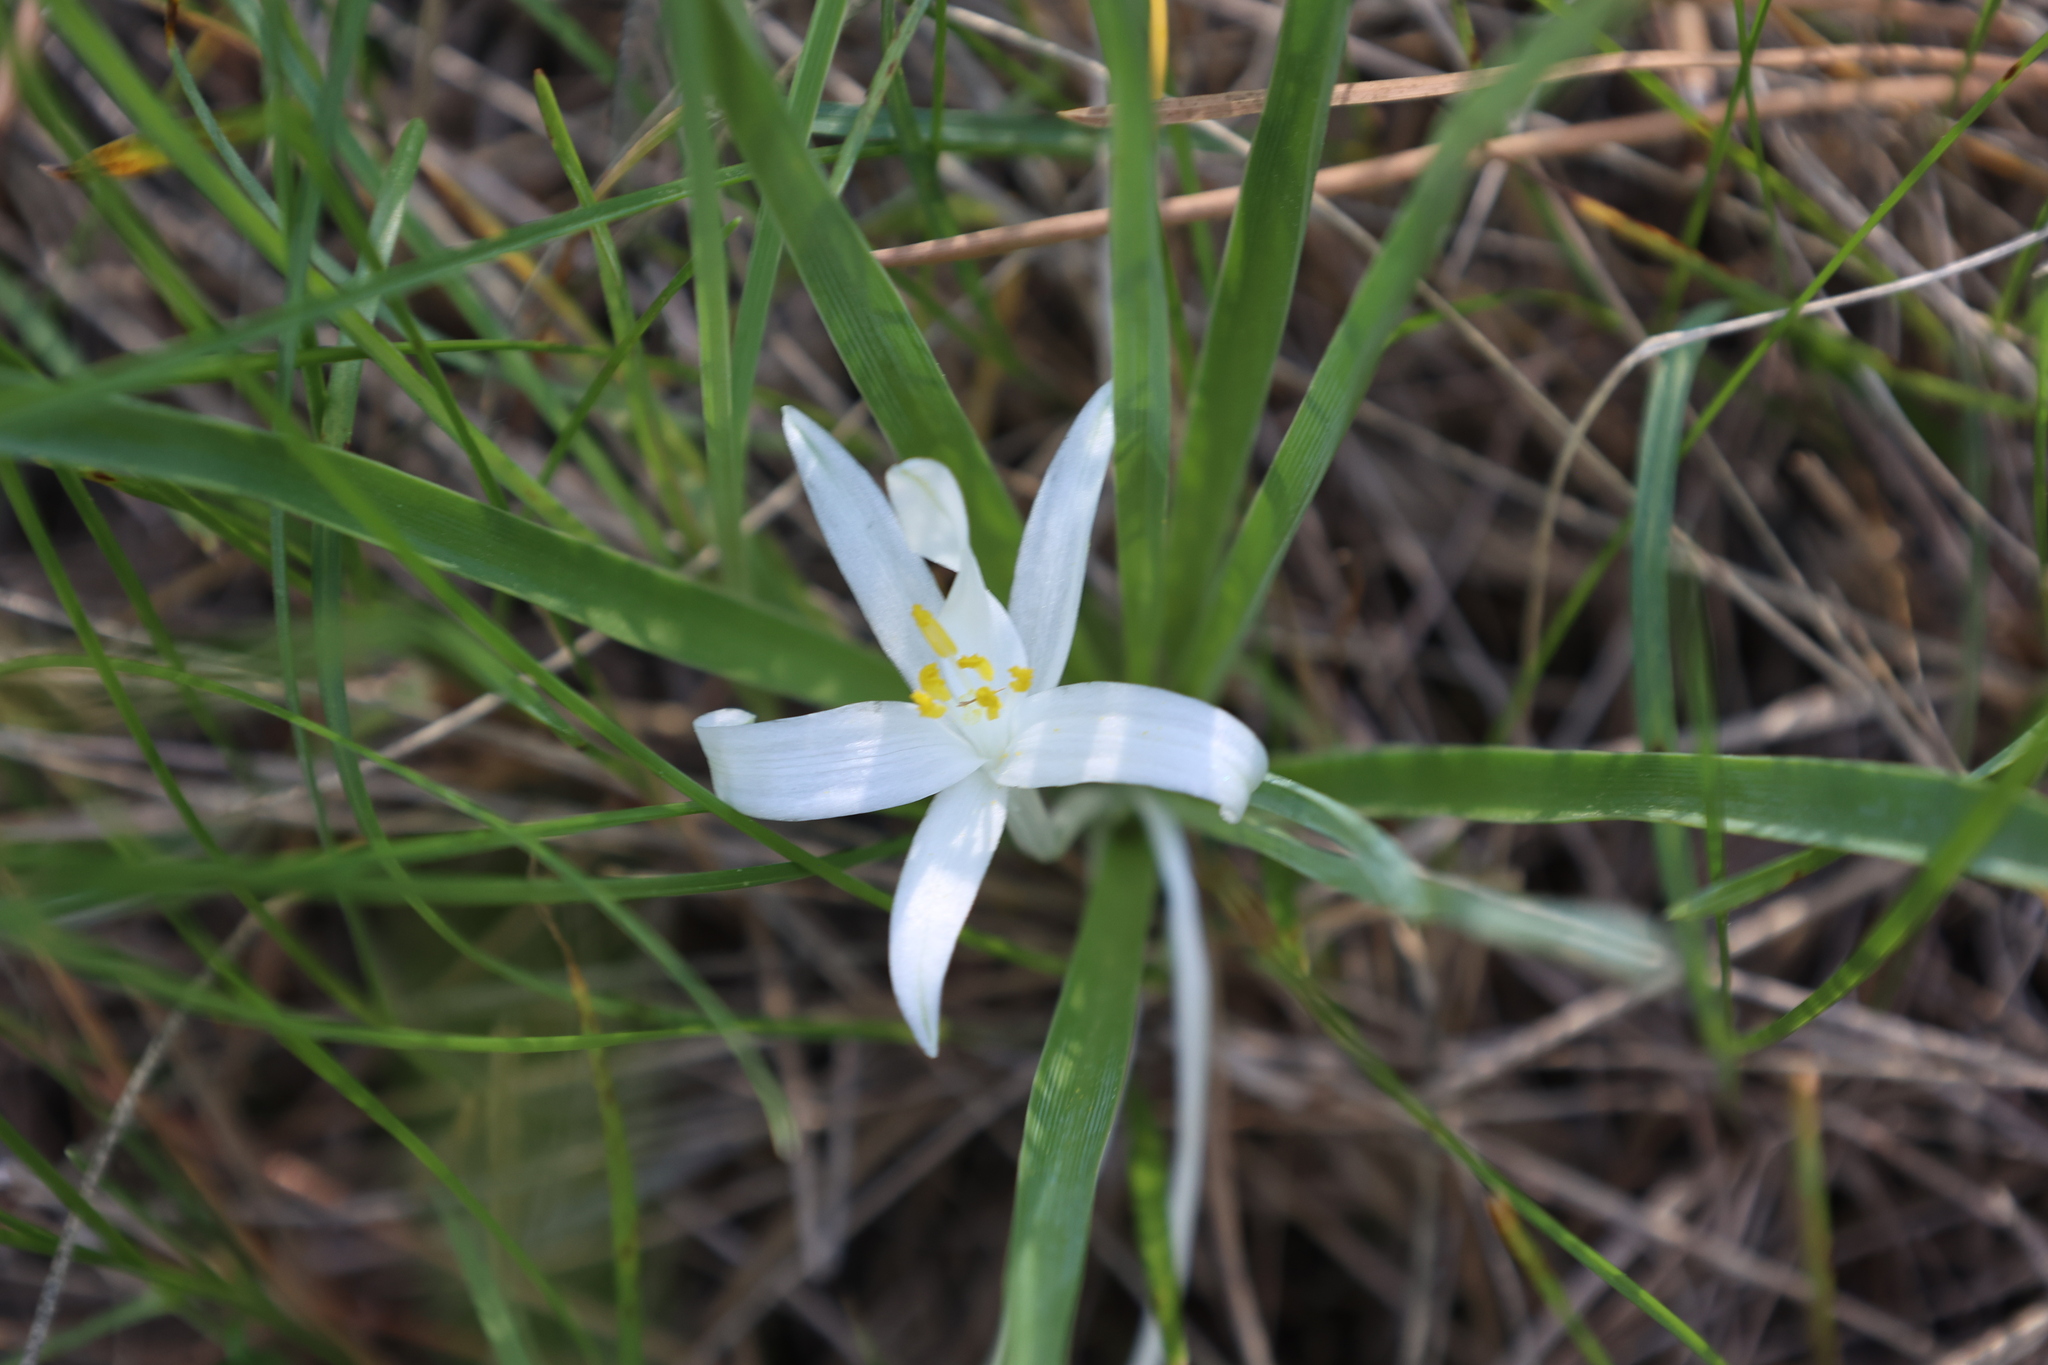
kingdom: Plantae
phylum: Tracheophyta
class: Liliopsida
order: Asparagales
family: Asparagaceae
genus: Leucocrinum
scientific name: Leucocrinum montanum
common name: Mountain-lily
